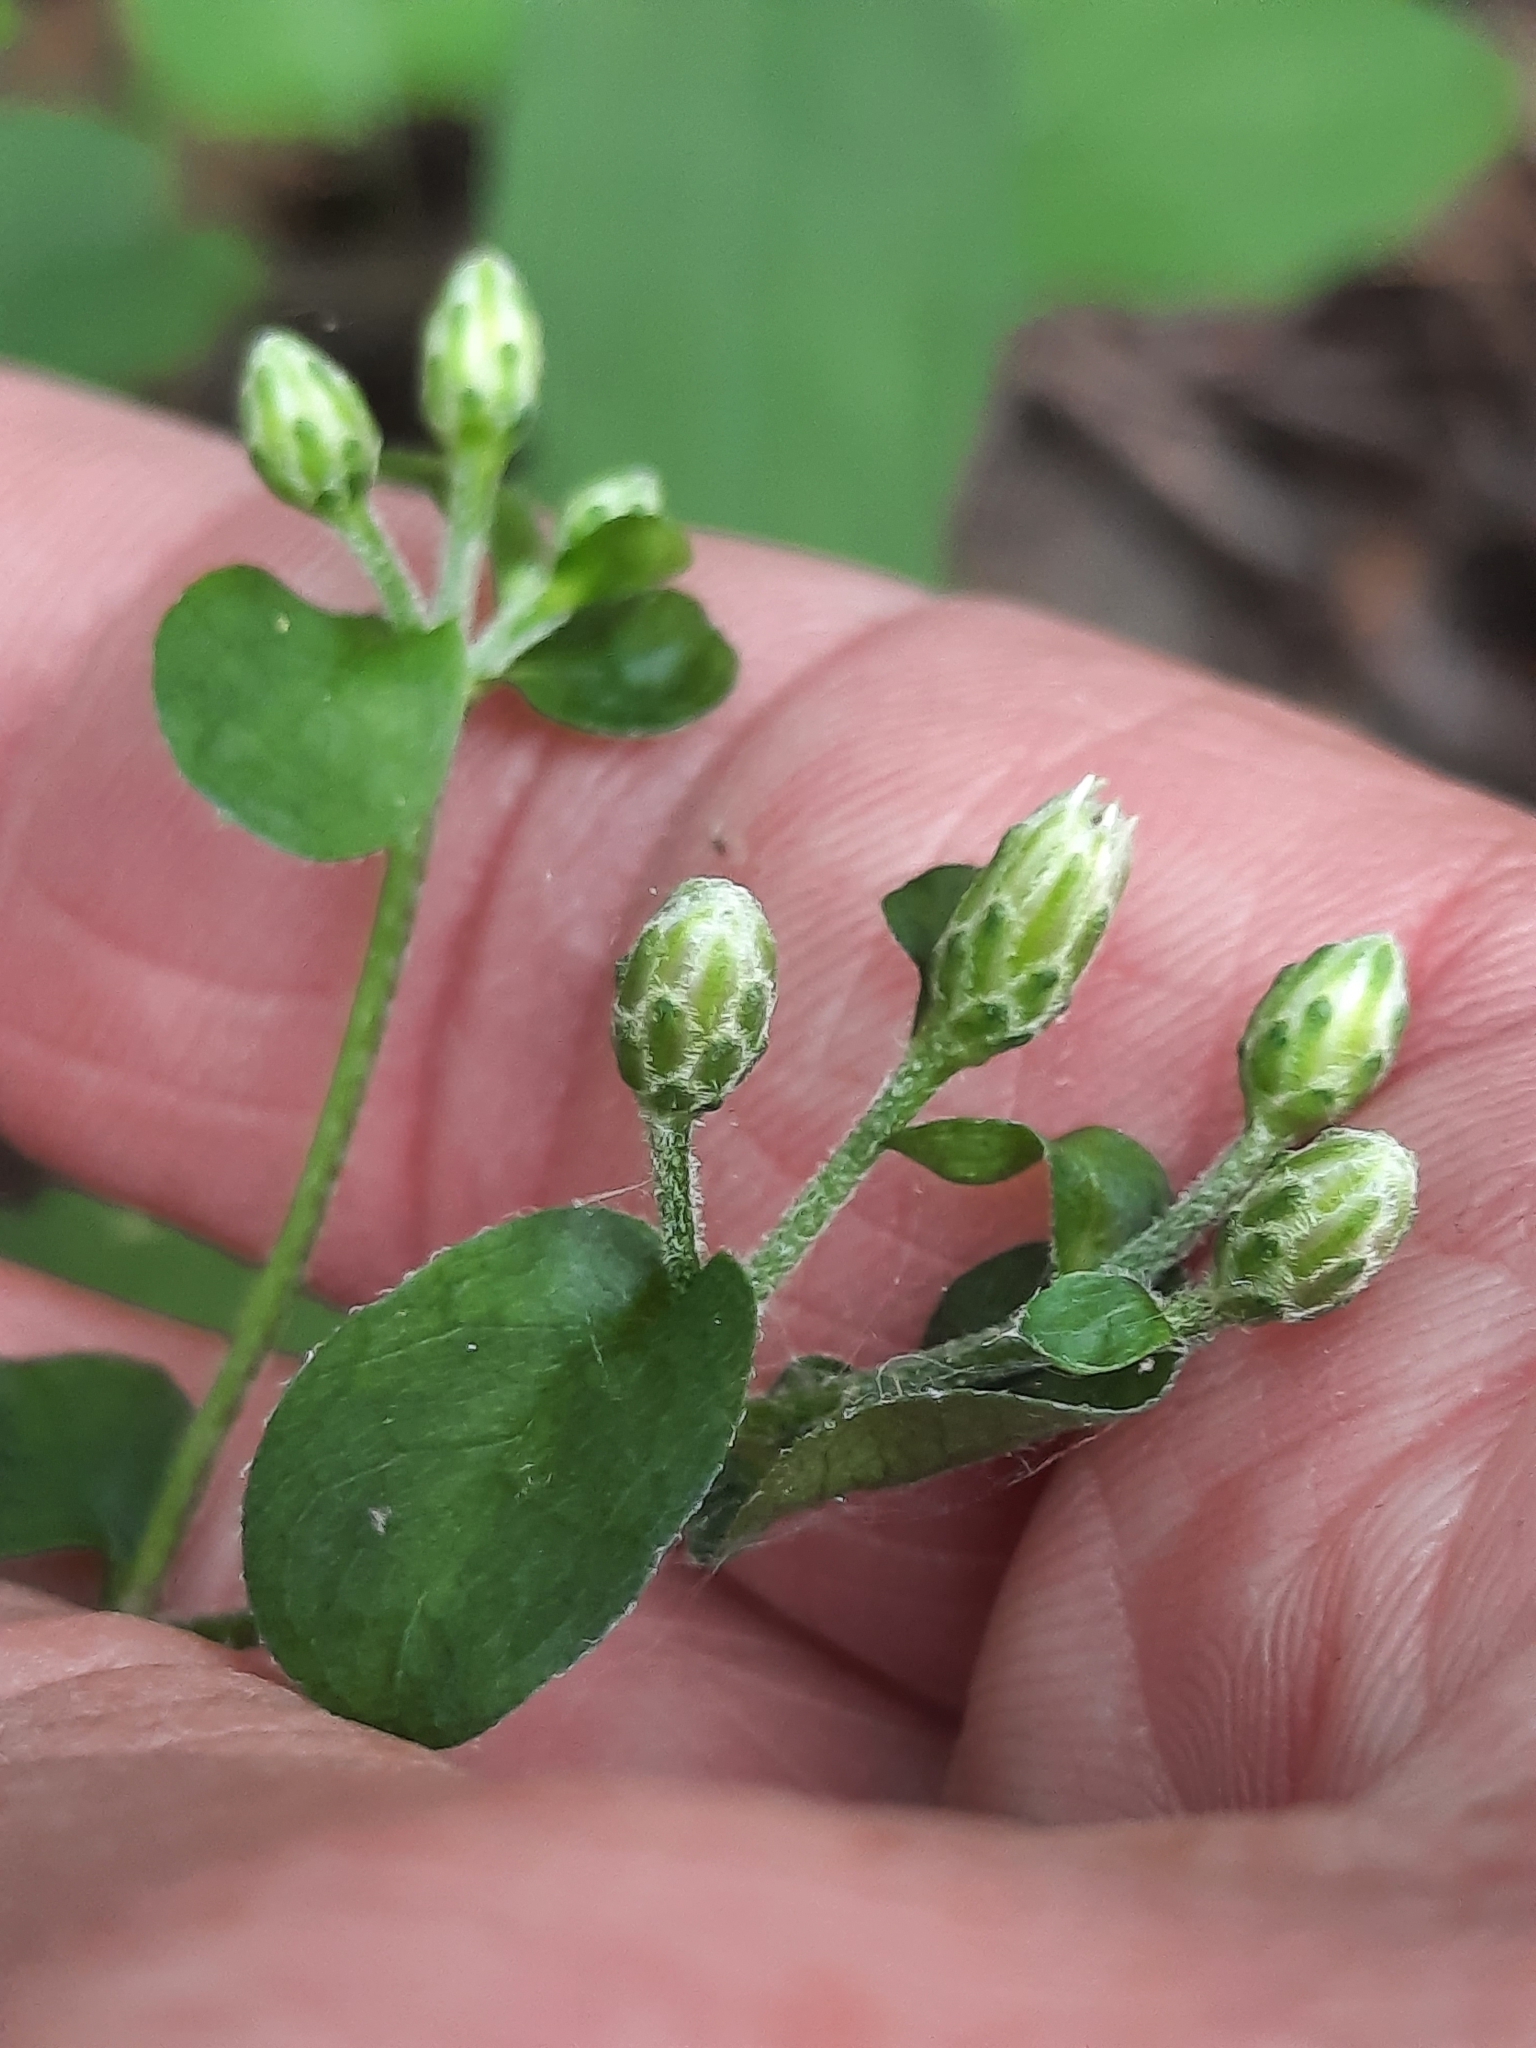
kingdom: Plantae
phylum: Tracheophyta
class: Magnoliopsida
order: Asterales
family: Asteraceae
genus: Eurybia
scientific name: Eurybia divaricata
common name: White wood aster
